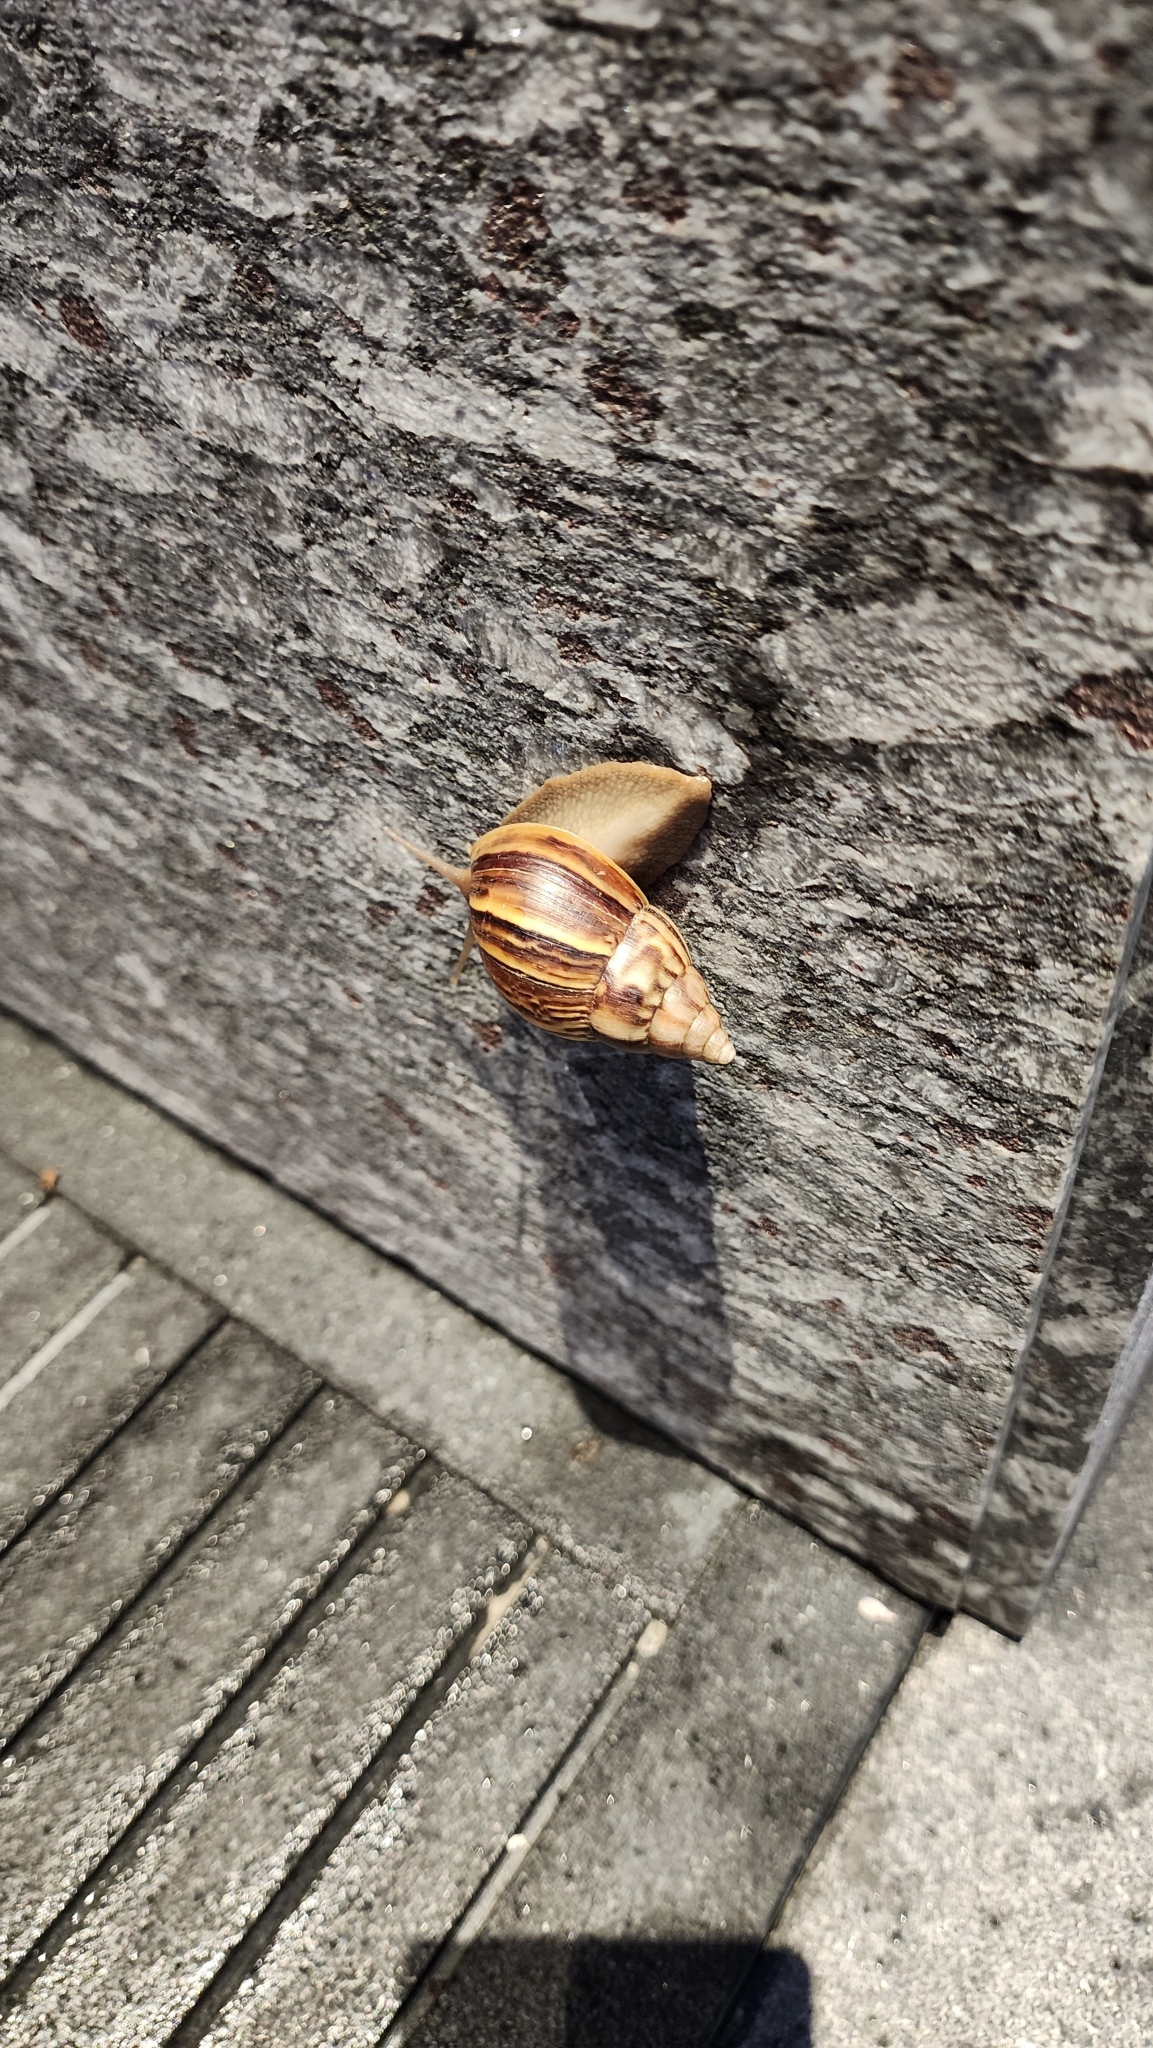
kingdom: Animalia
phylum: Mollusca
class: Gastropoda
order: Stylommatophora
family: Achatinidae
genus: Lissachatina
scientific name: Lissachatina fulica
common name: Giant african snail
